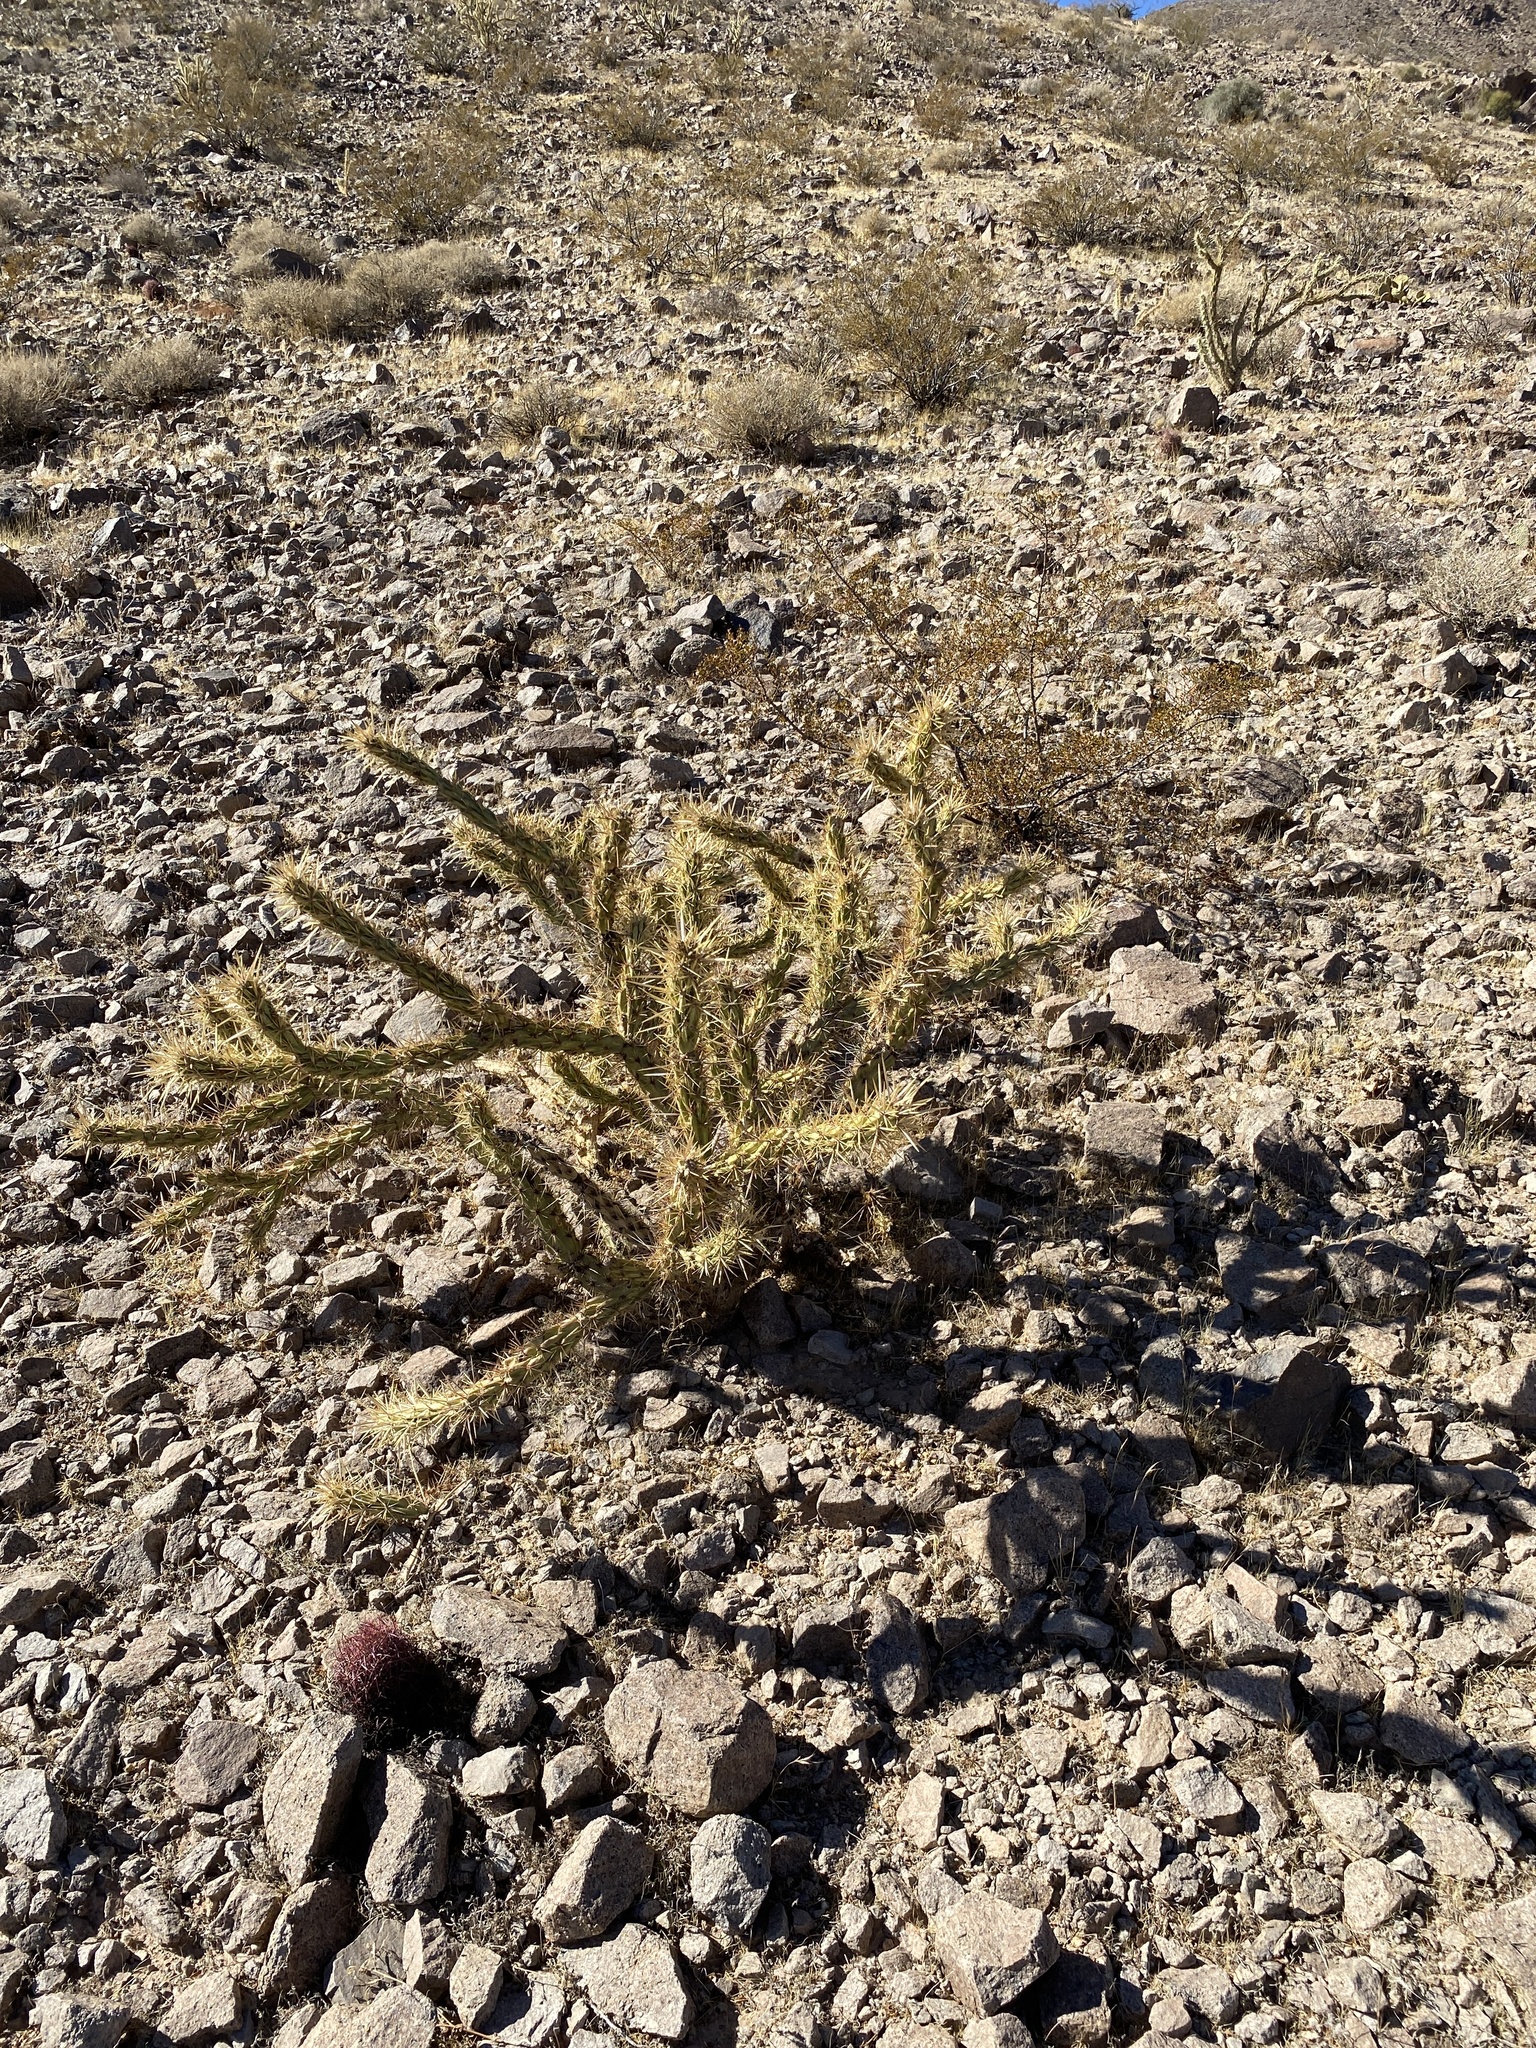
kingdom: Plantae
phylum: Tracheophyta
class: Magnoliopsida
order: Caryophyllales
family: Cactaceae
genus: Cylindropuntia
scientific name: Cylindropuntia acanthocarpa
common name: Buckhorn cholla
